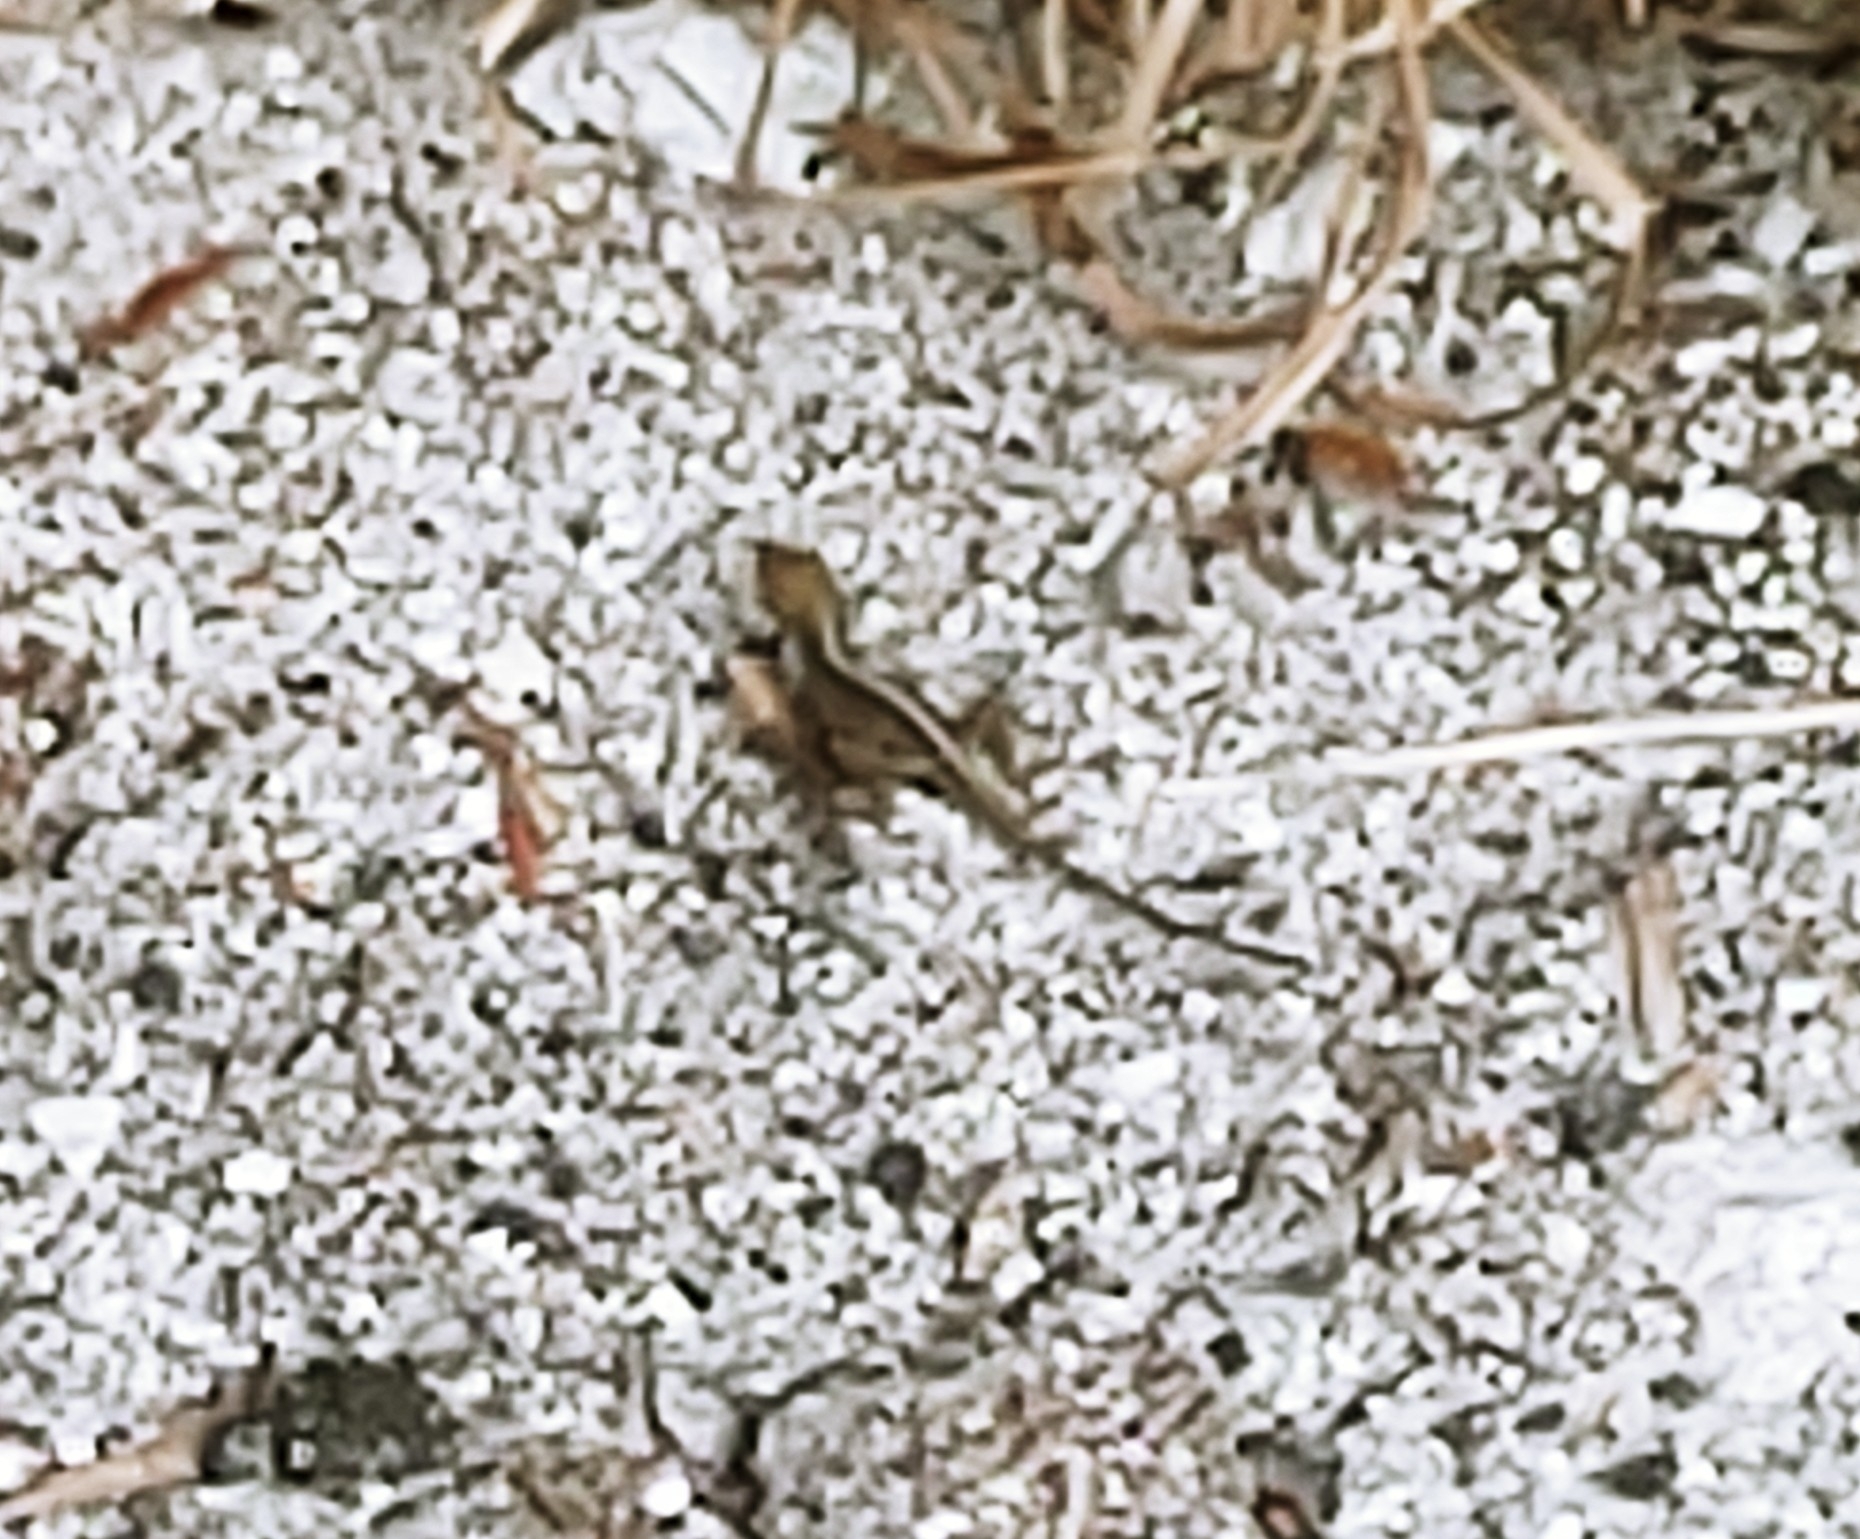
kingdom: Animalia
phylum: Chordata
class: Squamata
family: Dactyloidae
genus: Anolis
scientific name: Anolis sagrei
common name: Brown anole
